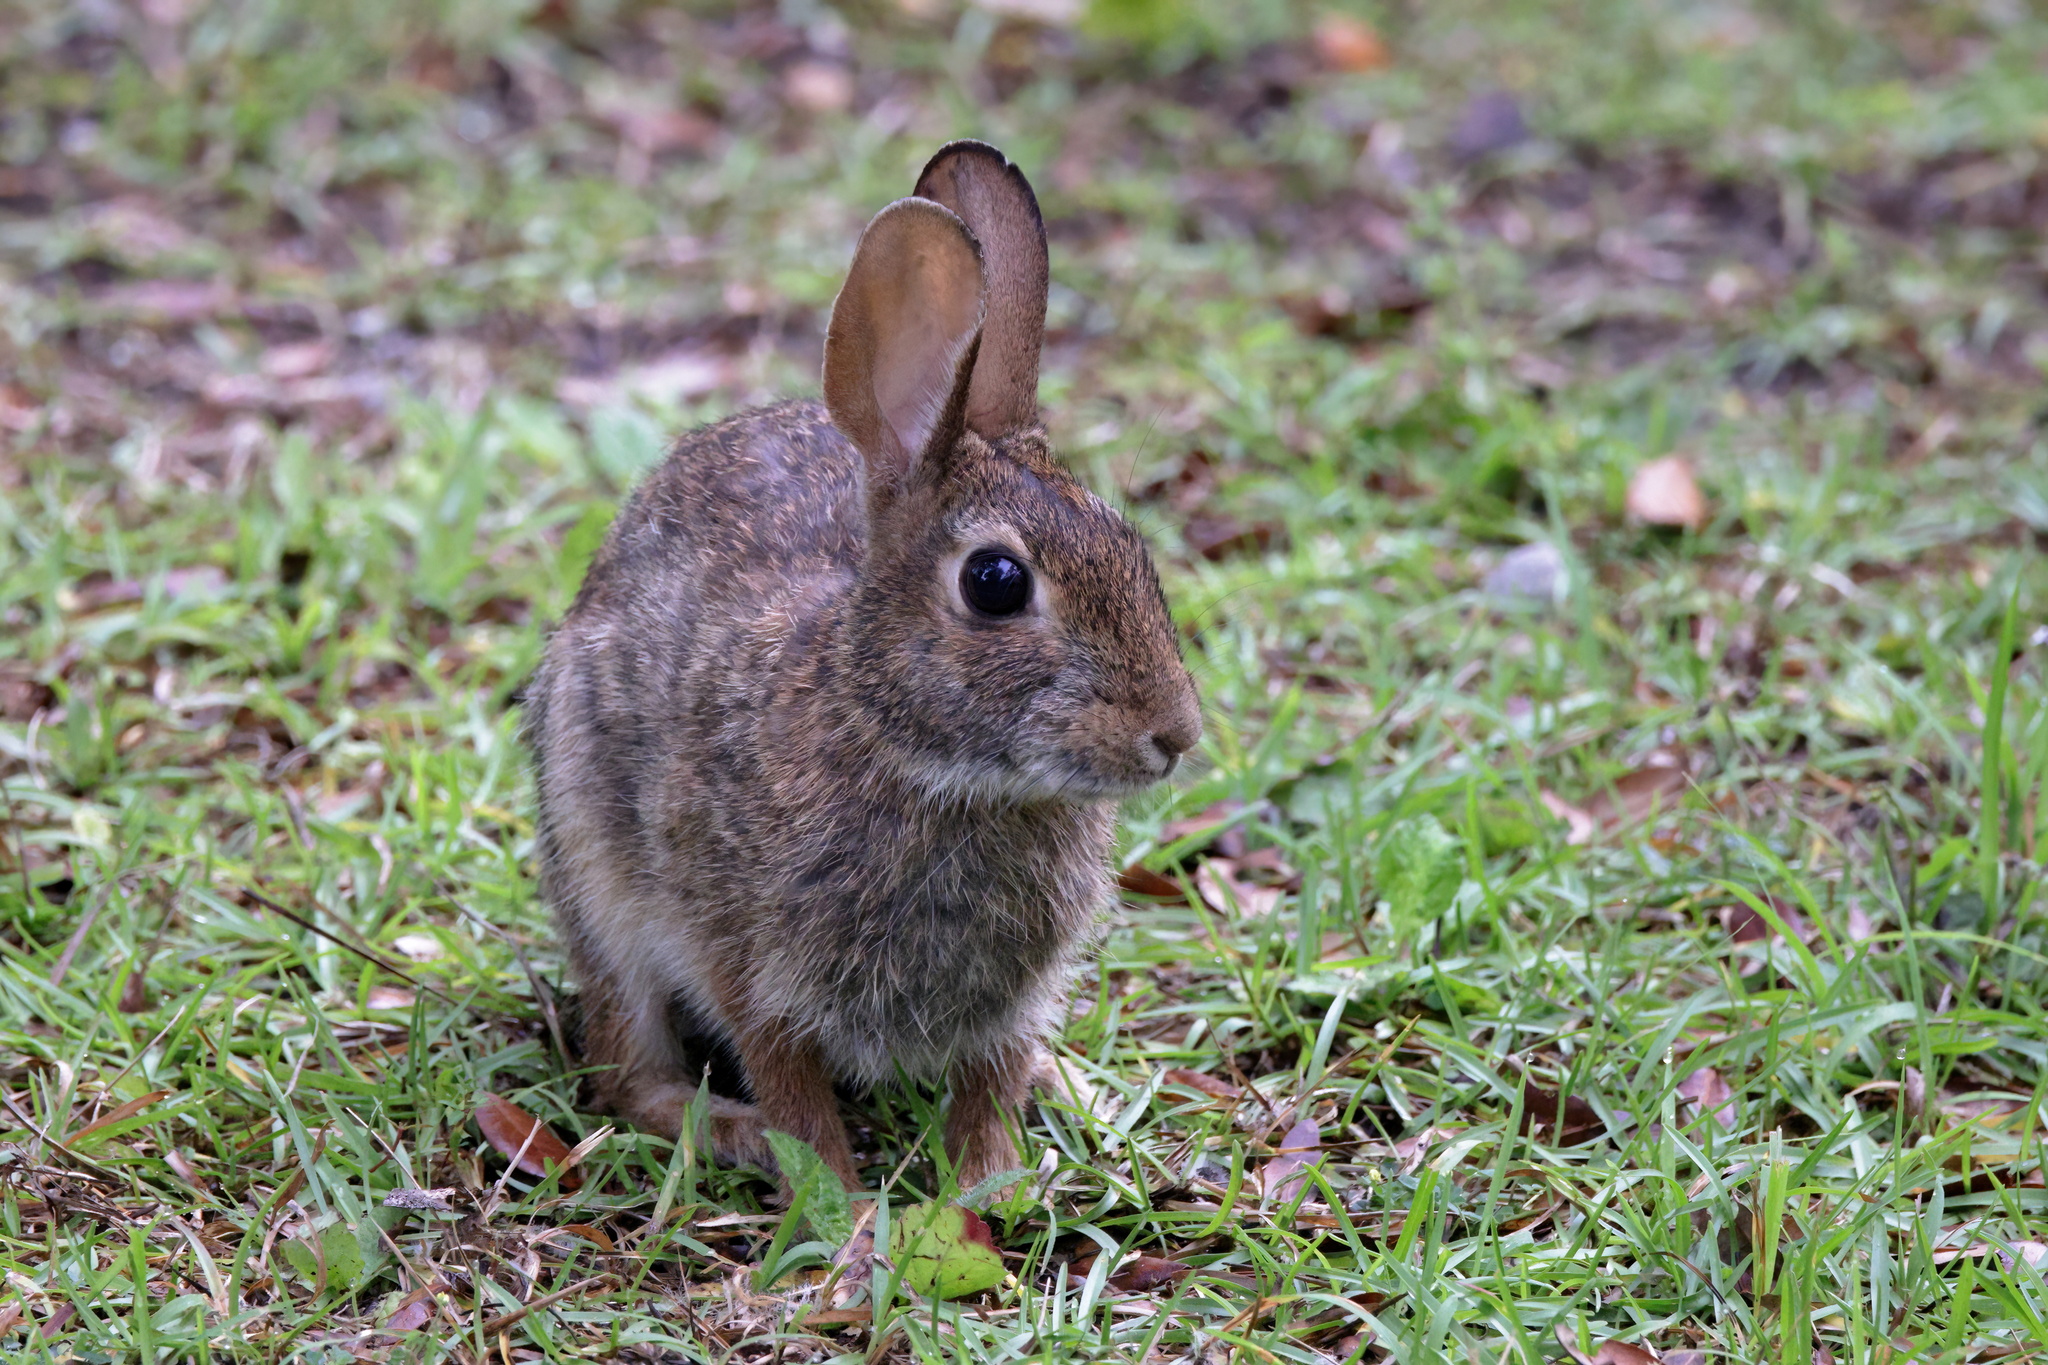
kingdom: Animalia
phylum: Chordata
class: Mammalia
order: Lagomorpha
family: Leporidae
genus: Sylvilagus
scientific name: Sylvilagus floridanus
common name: Eastern cottontail
